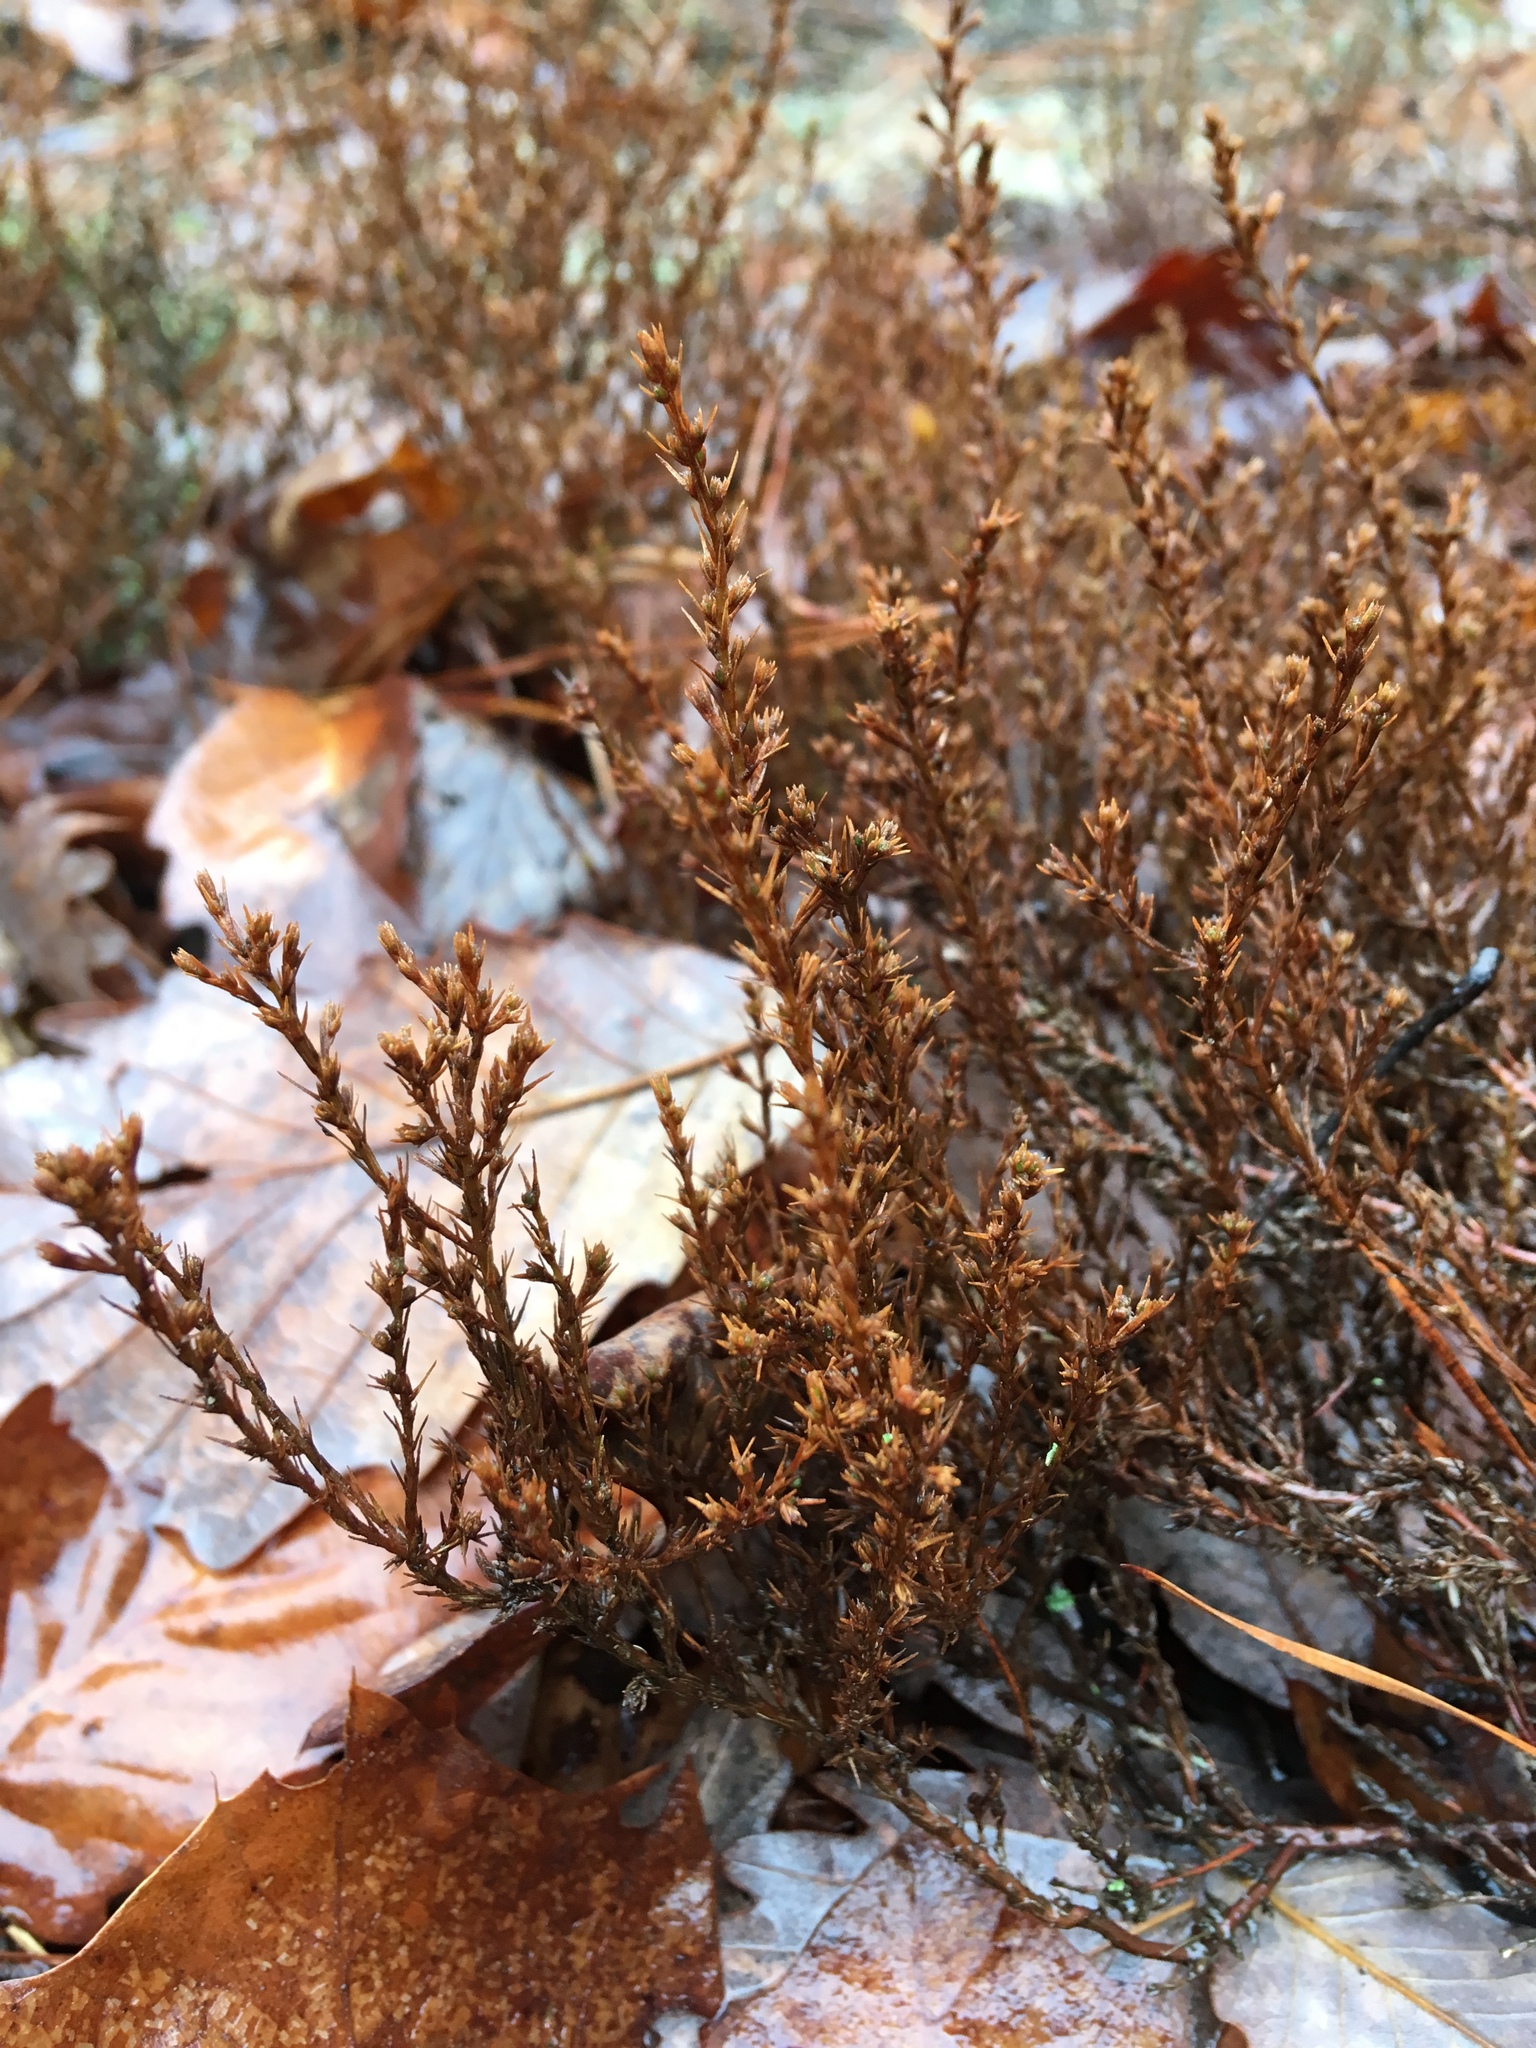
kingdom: Plantae
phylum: Tracheophyta
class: Magnoliopsida
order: Malvales
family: Cistaceae
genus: Hudsonia
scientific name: Hudsonia ericoides
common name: Golden-heather
